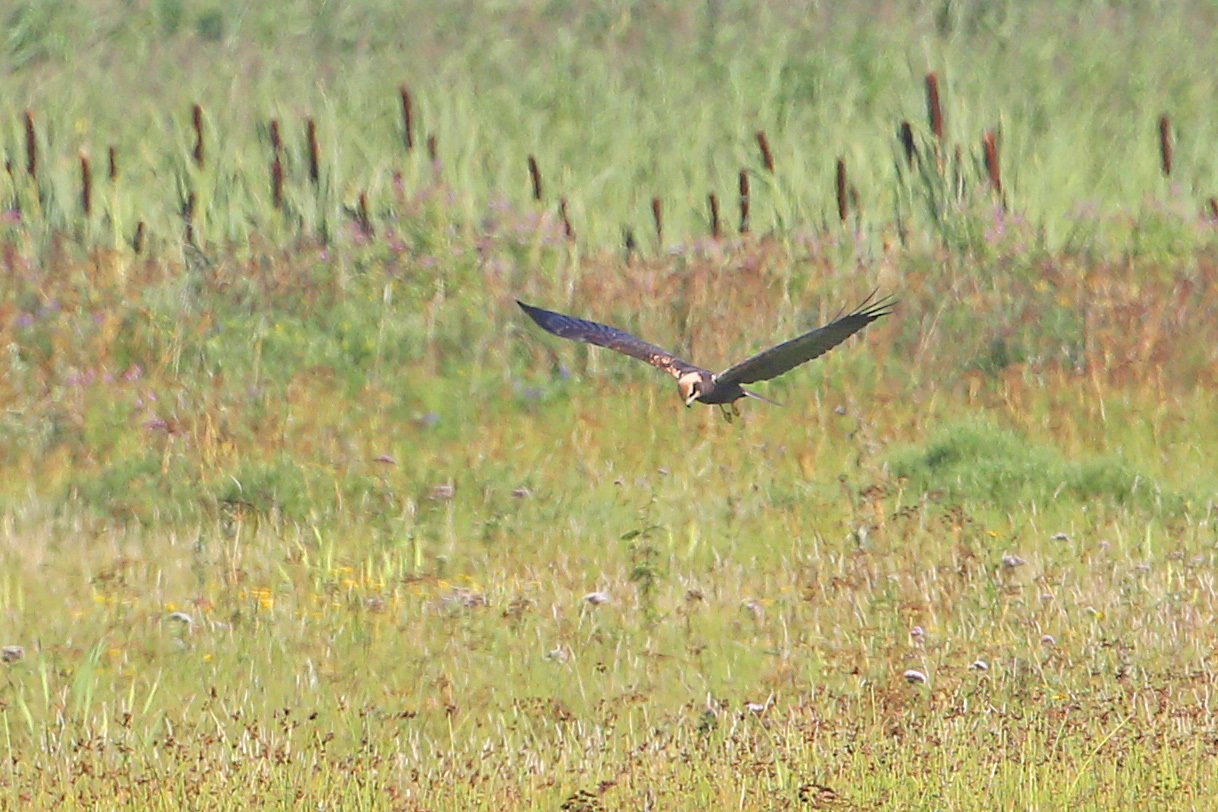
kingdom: Animalia
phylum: Chordata
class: Aves
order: Accipitriformes
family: Accipitridae
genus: Circus
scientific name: Circus aeruginosus
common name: Western marsh harrier
